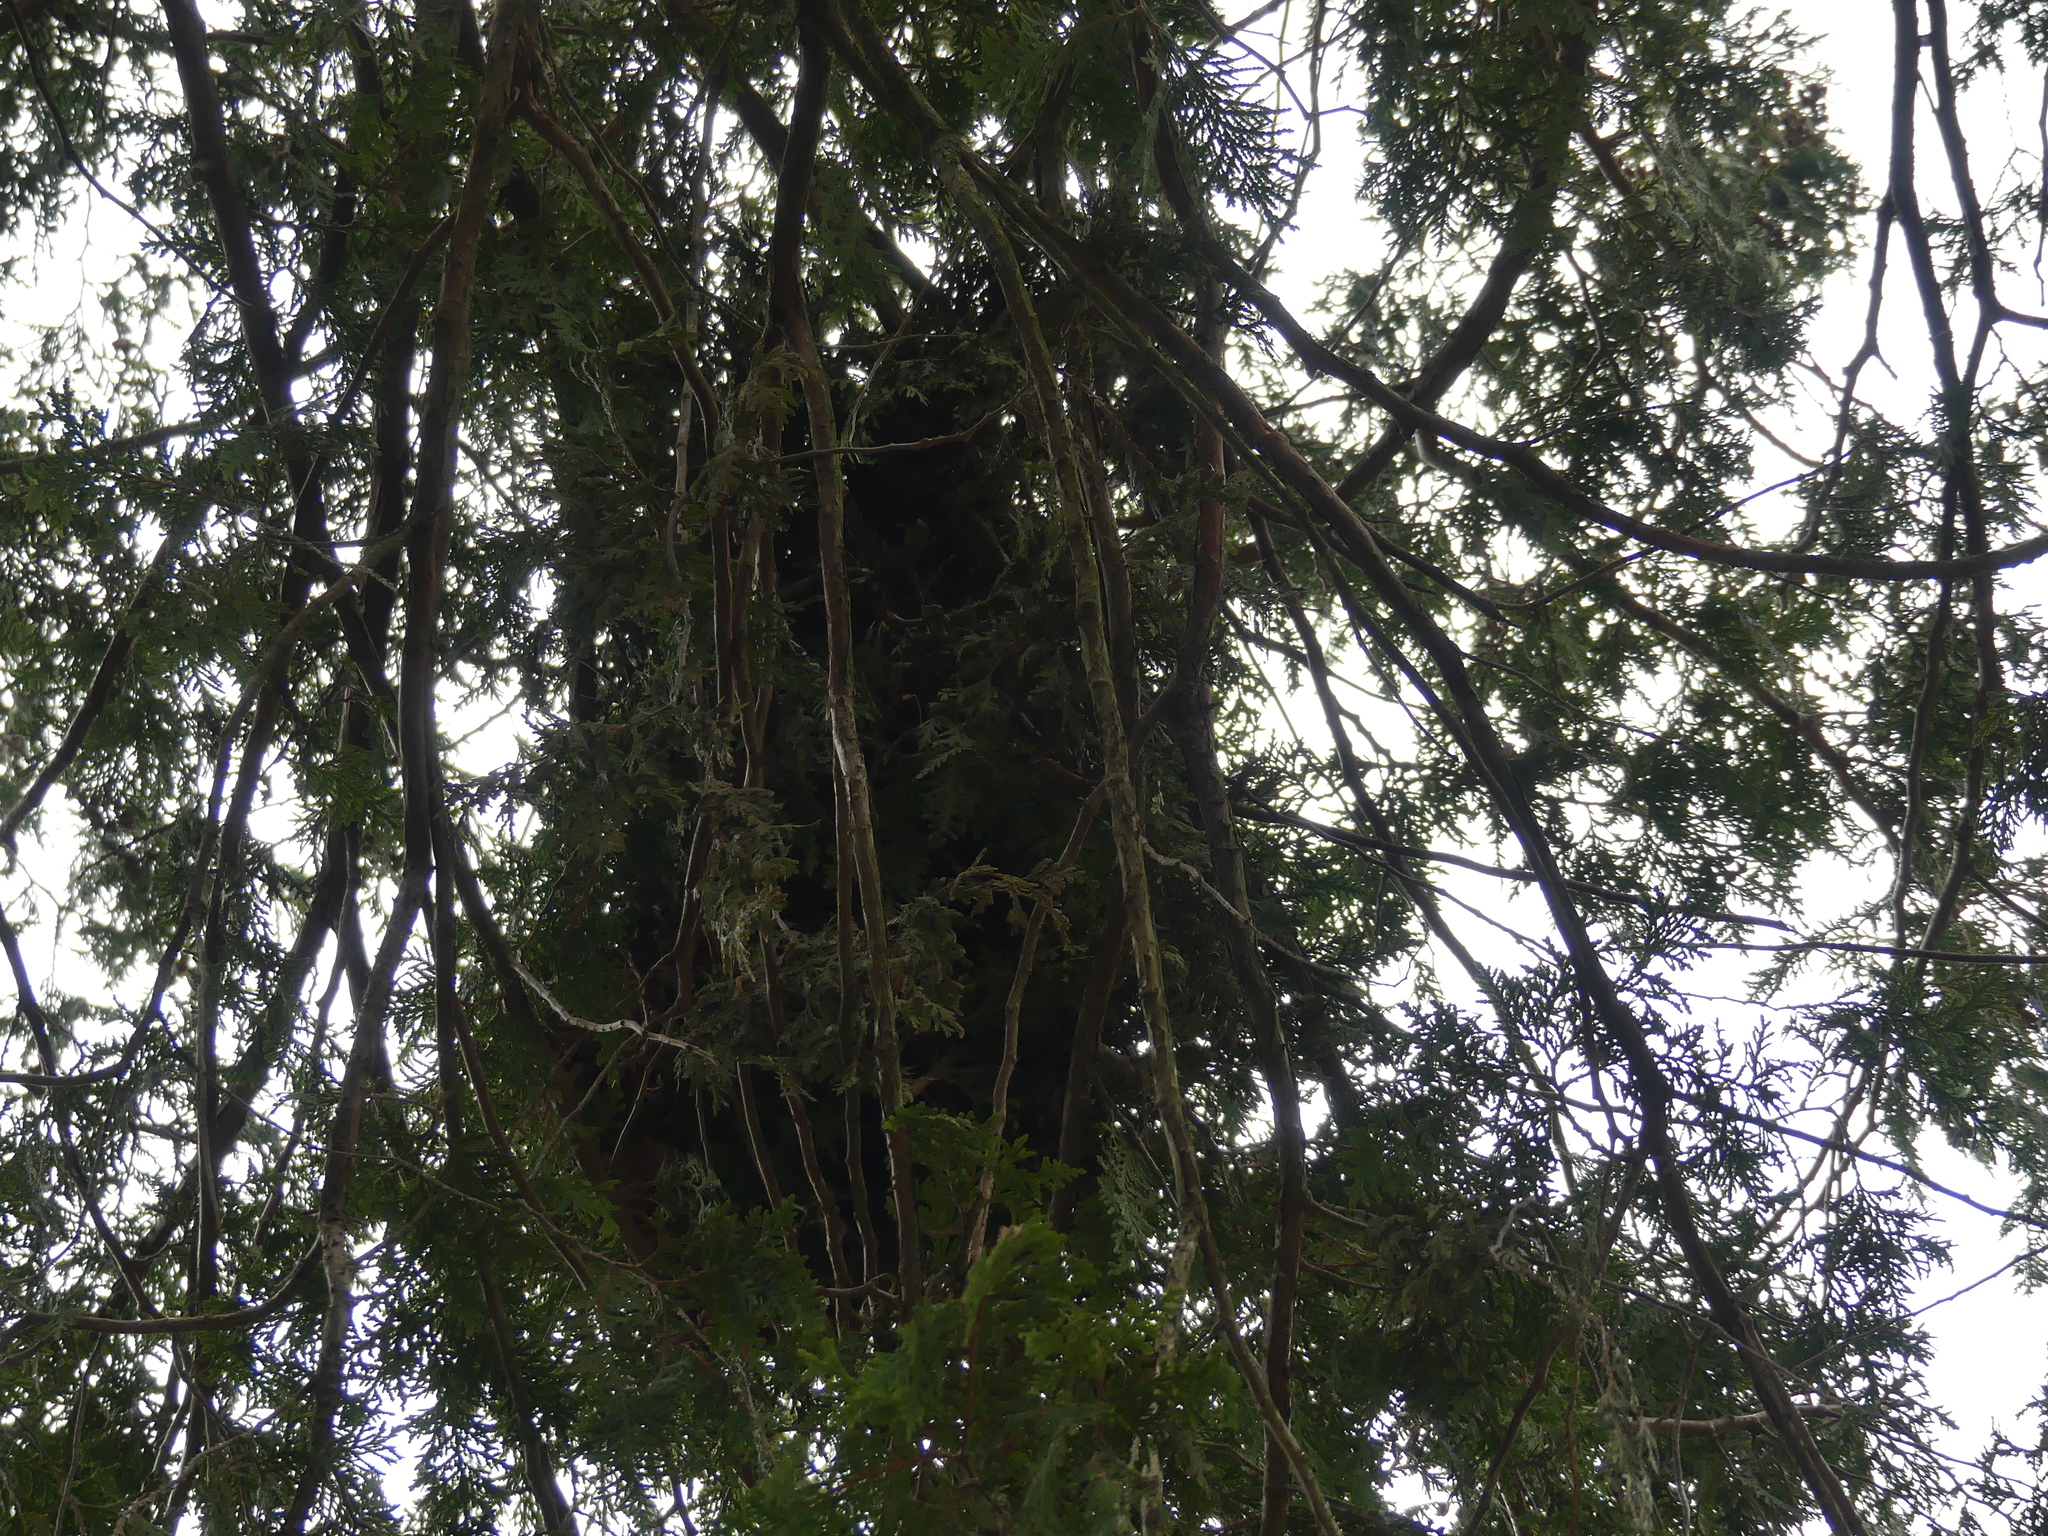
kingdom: Animalia
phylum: Chordata
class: Mammalia
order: Rodentia
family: Sciuridae
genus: Sciurus
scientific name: Sciurus carolinensis
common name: Eastern gray squirrel
